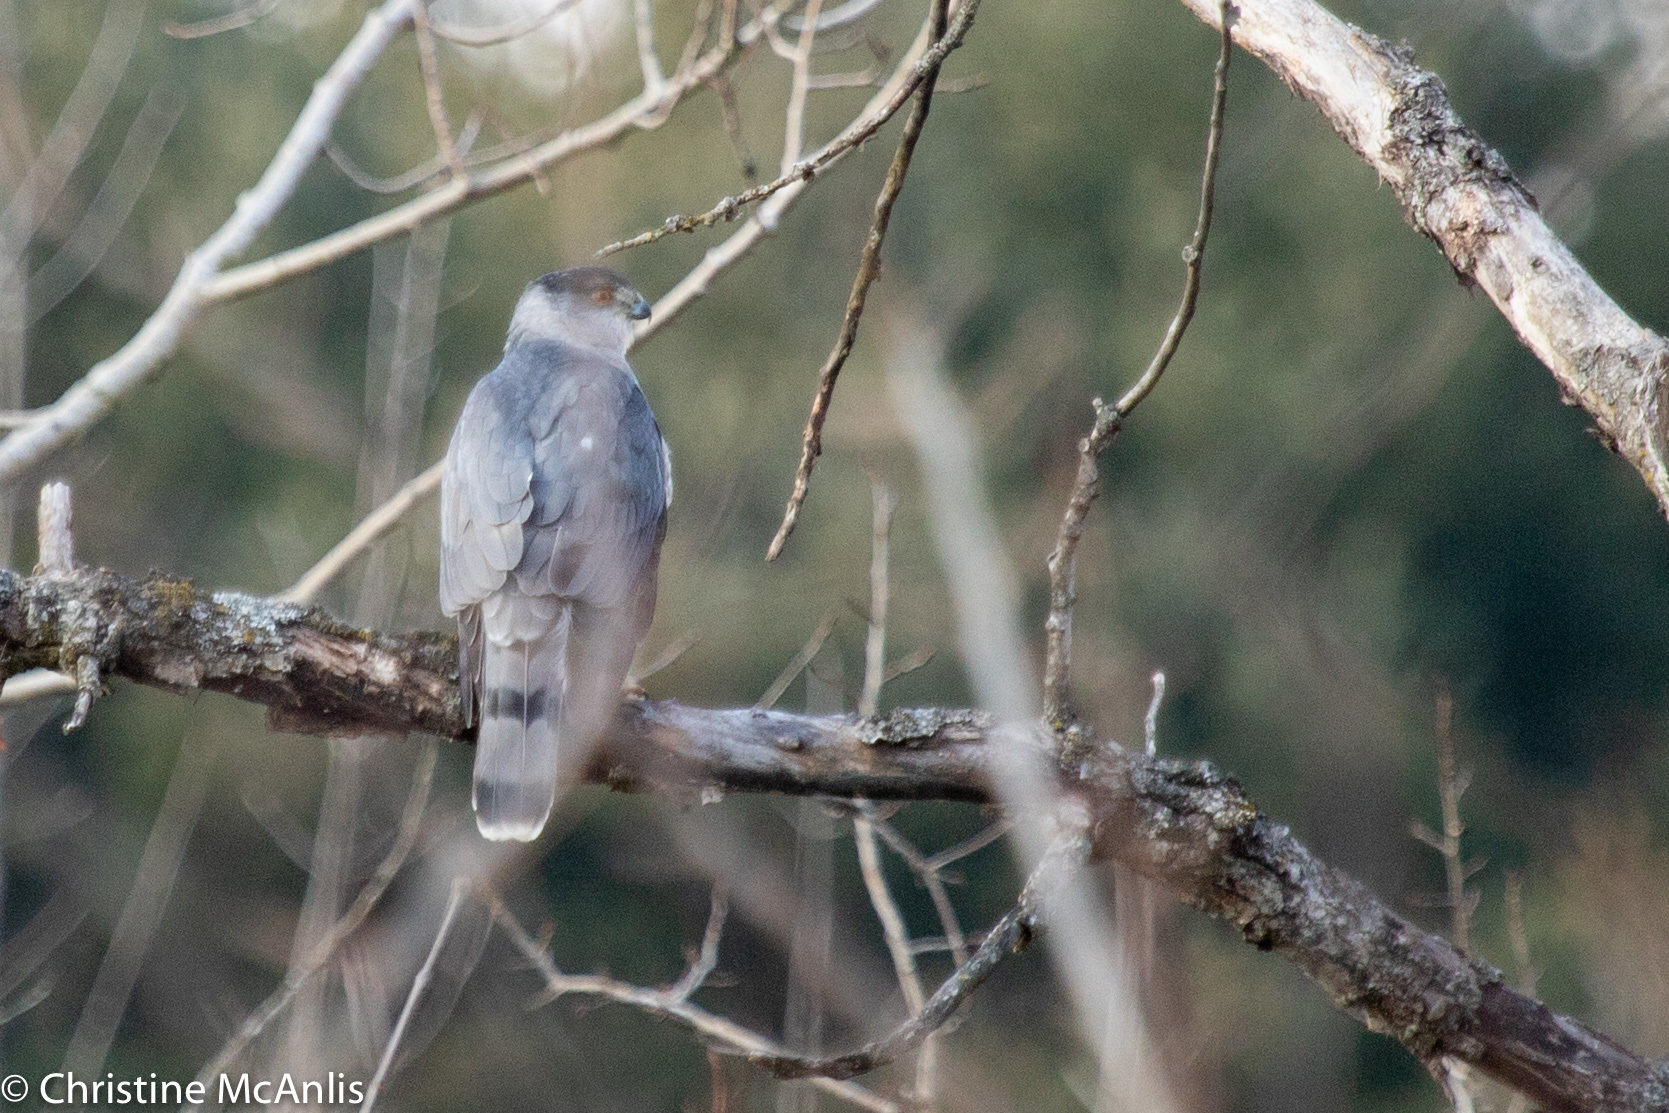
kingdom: Animalia
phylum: Chordata
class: Aves
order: Accipitriformes
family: Accipitridae
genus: Accipiter
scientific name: Accipiter cooperii
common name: Cooper's hawk
